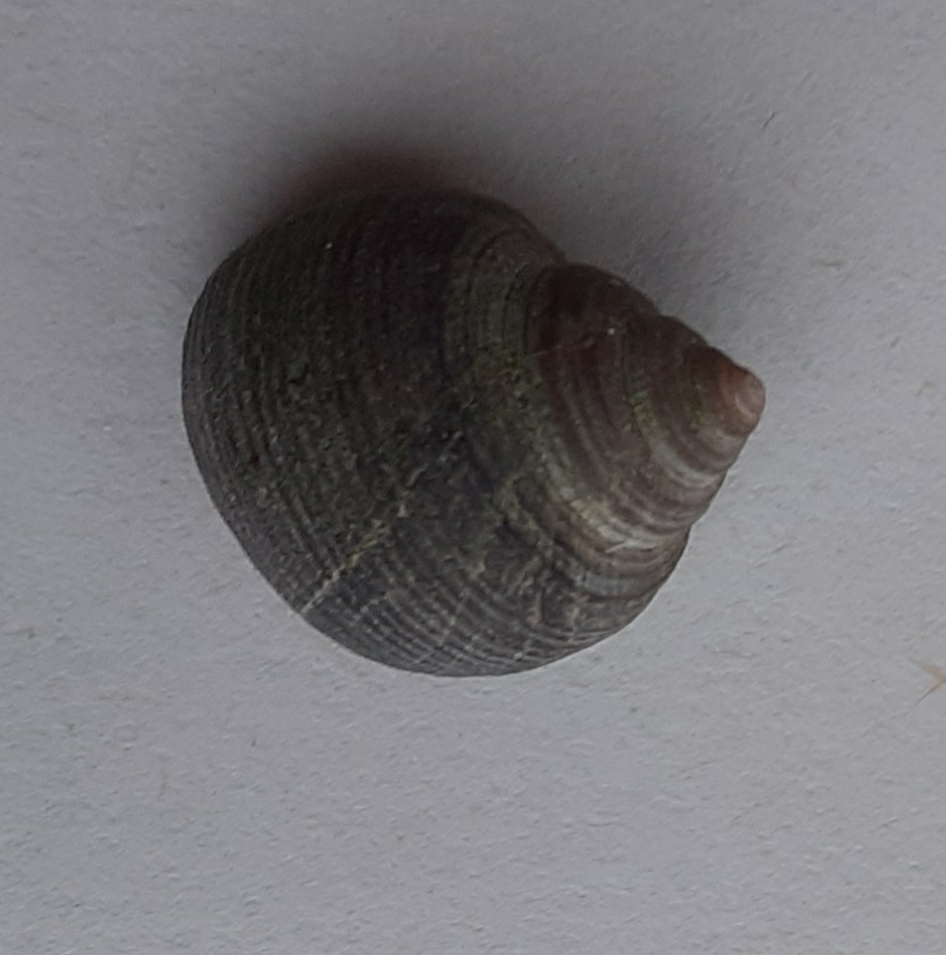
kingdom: Animalia
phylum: Mollusca
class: Gastropoda
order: Littorinimorpha
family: Littorinidae
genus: Littorina
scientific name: Littorina littorea
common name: Common periwinkle
